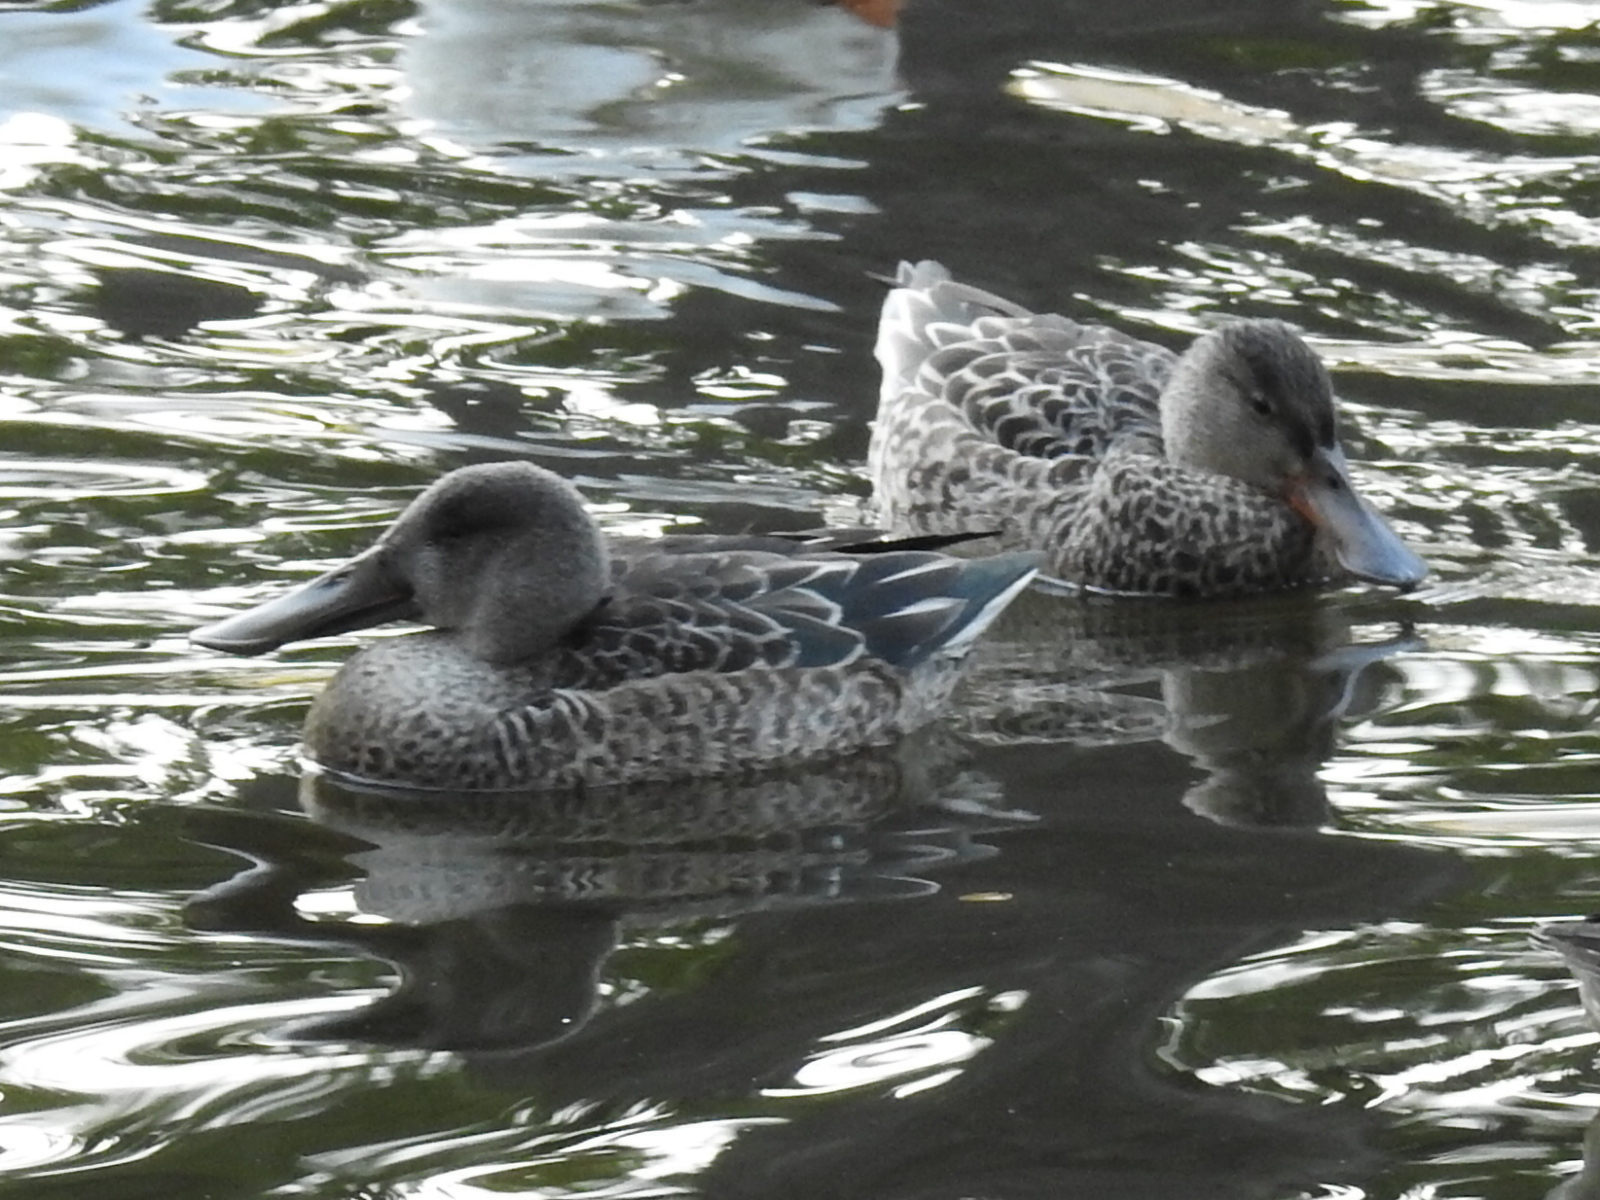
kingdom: Animalia
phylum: Chordata
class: Aves
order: Anseriformes
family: Anatidae
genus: Spatula
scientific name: Spatula clypeata
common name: Northern shoveler
